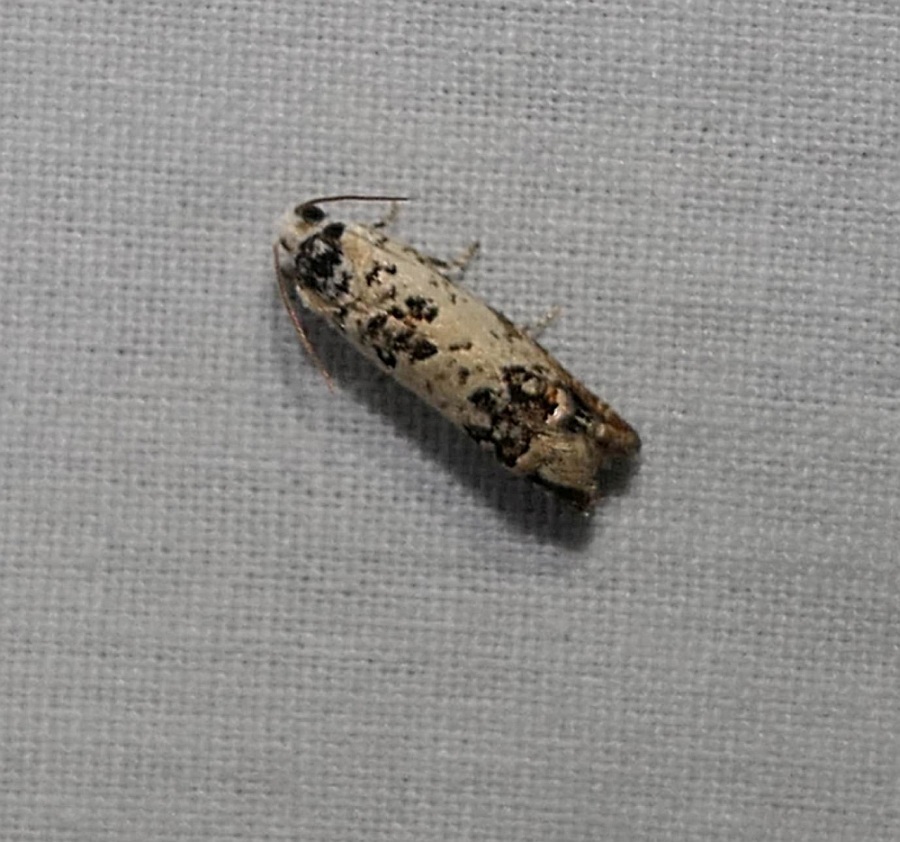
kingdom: Animalia
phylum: Arthropoda
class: Insecta
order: Lepidoptera
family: Tortricidae
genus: Eucosma
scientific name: Eucosma ornatula
